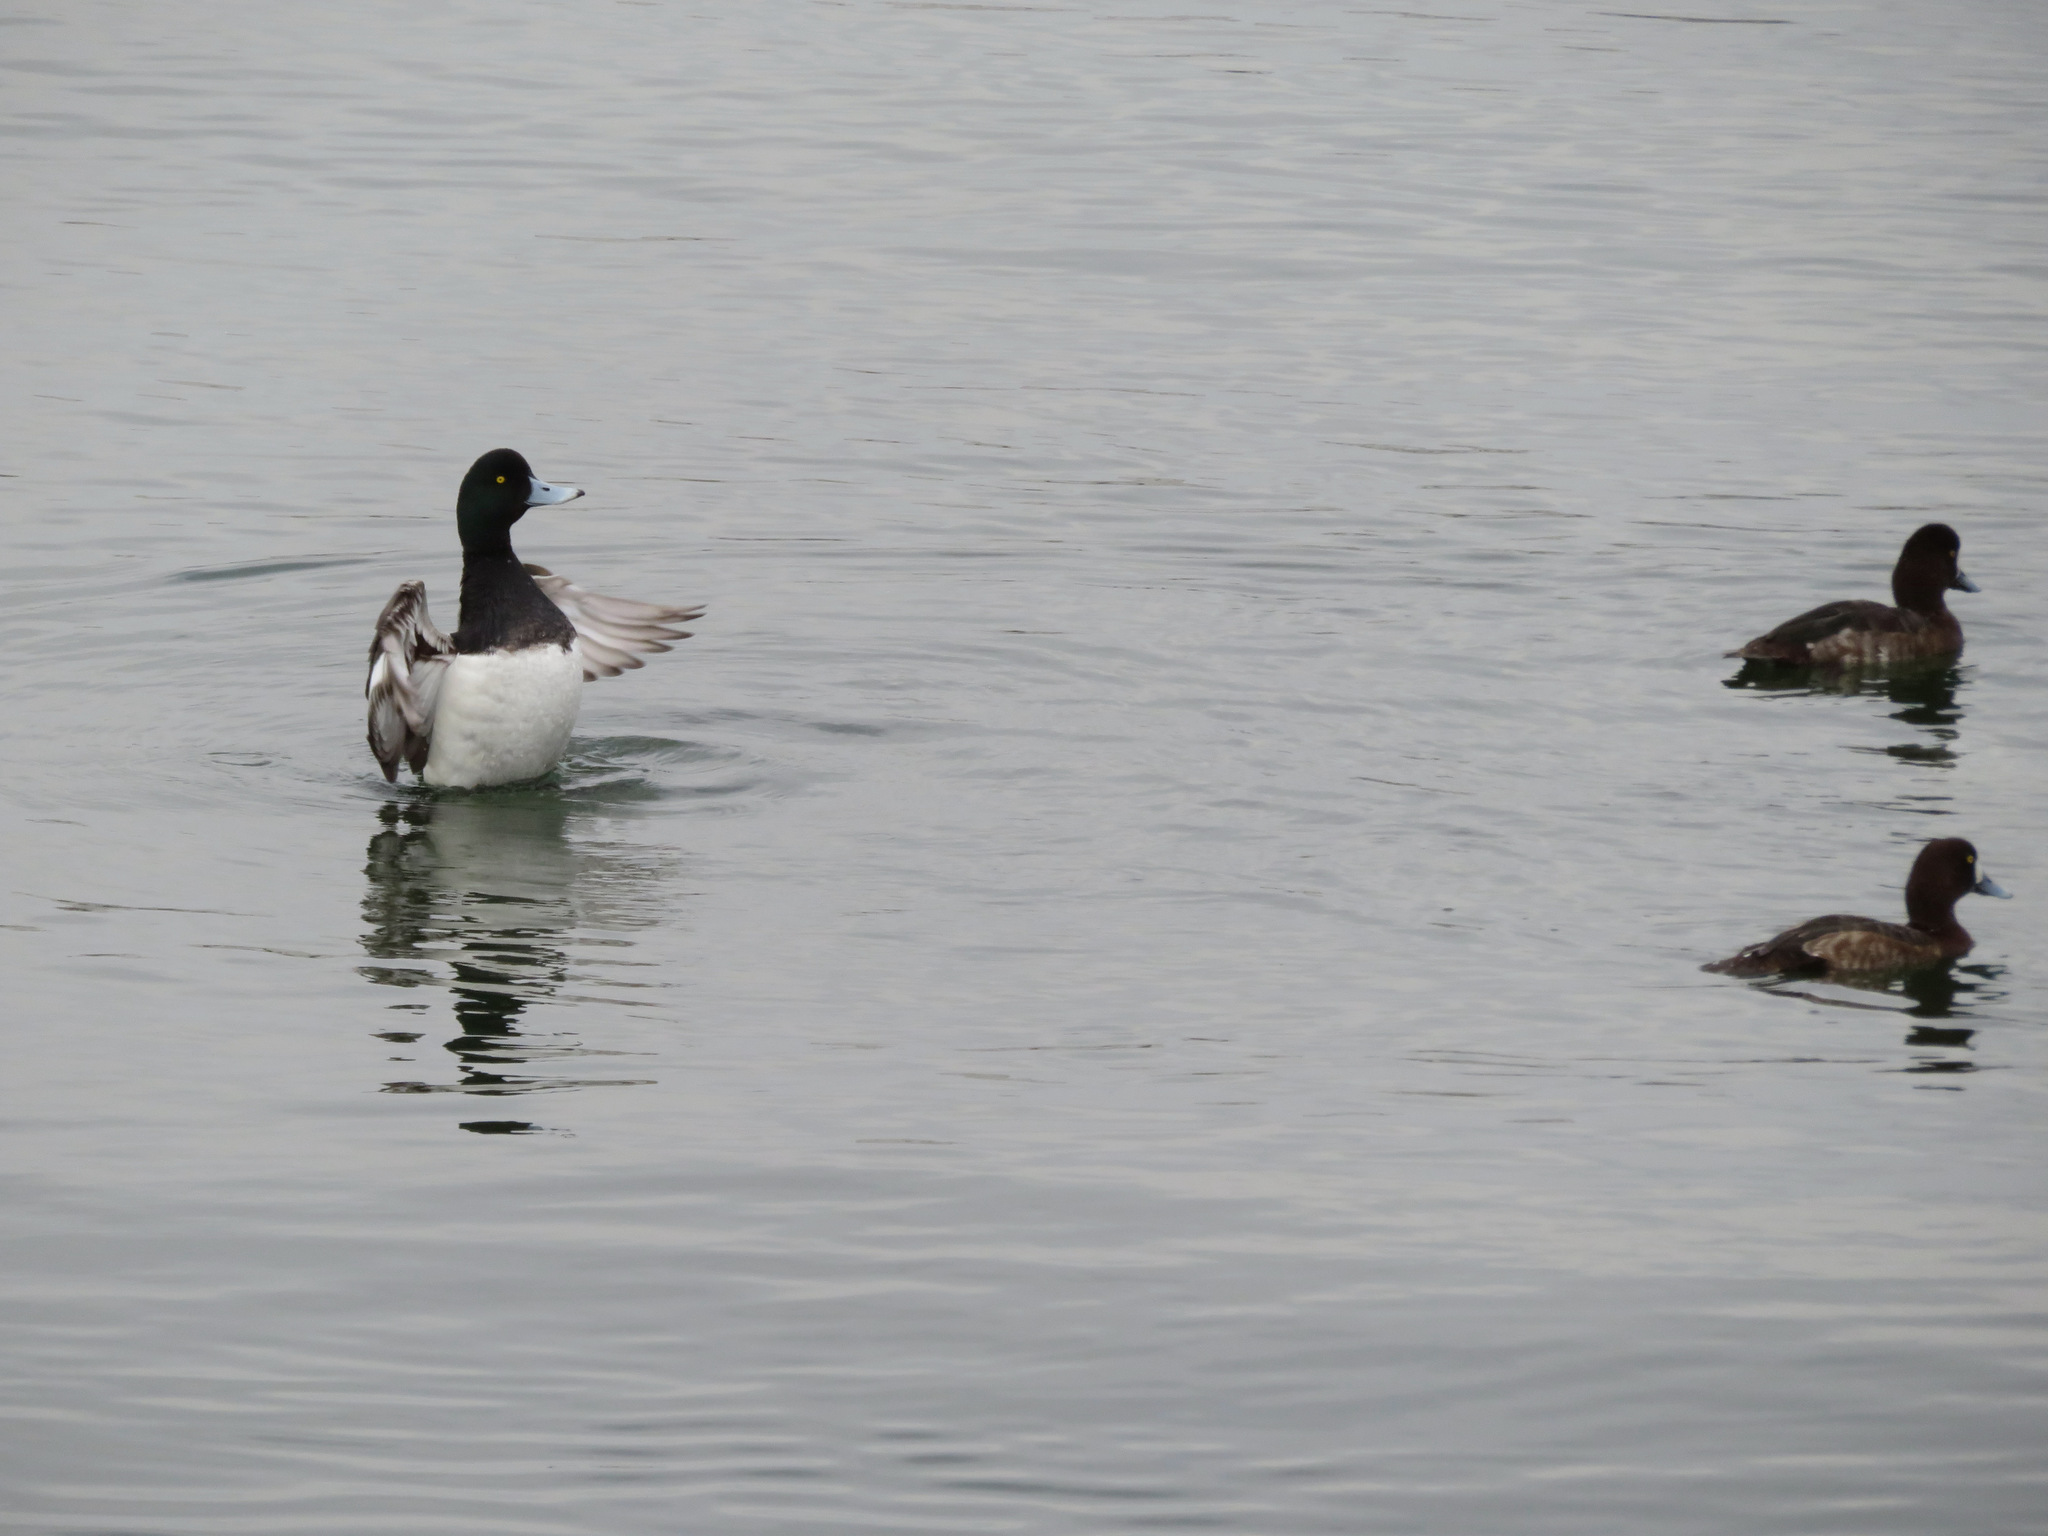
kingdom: Animalia
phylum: Chordata
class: Aves
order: Anseriformes
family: Anatidae
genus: Aythya
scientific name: Aythya marila
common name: Greater scaup
